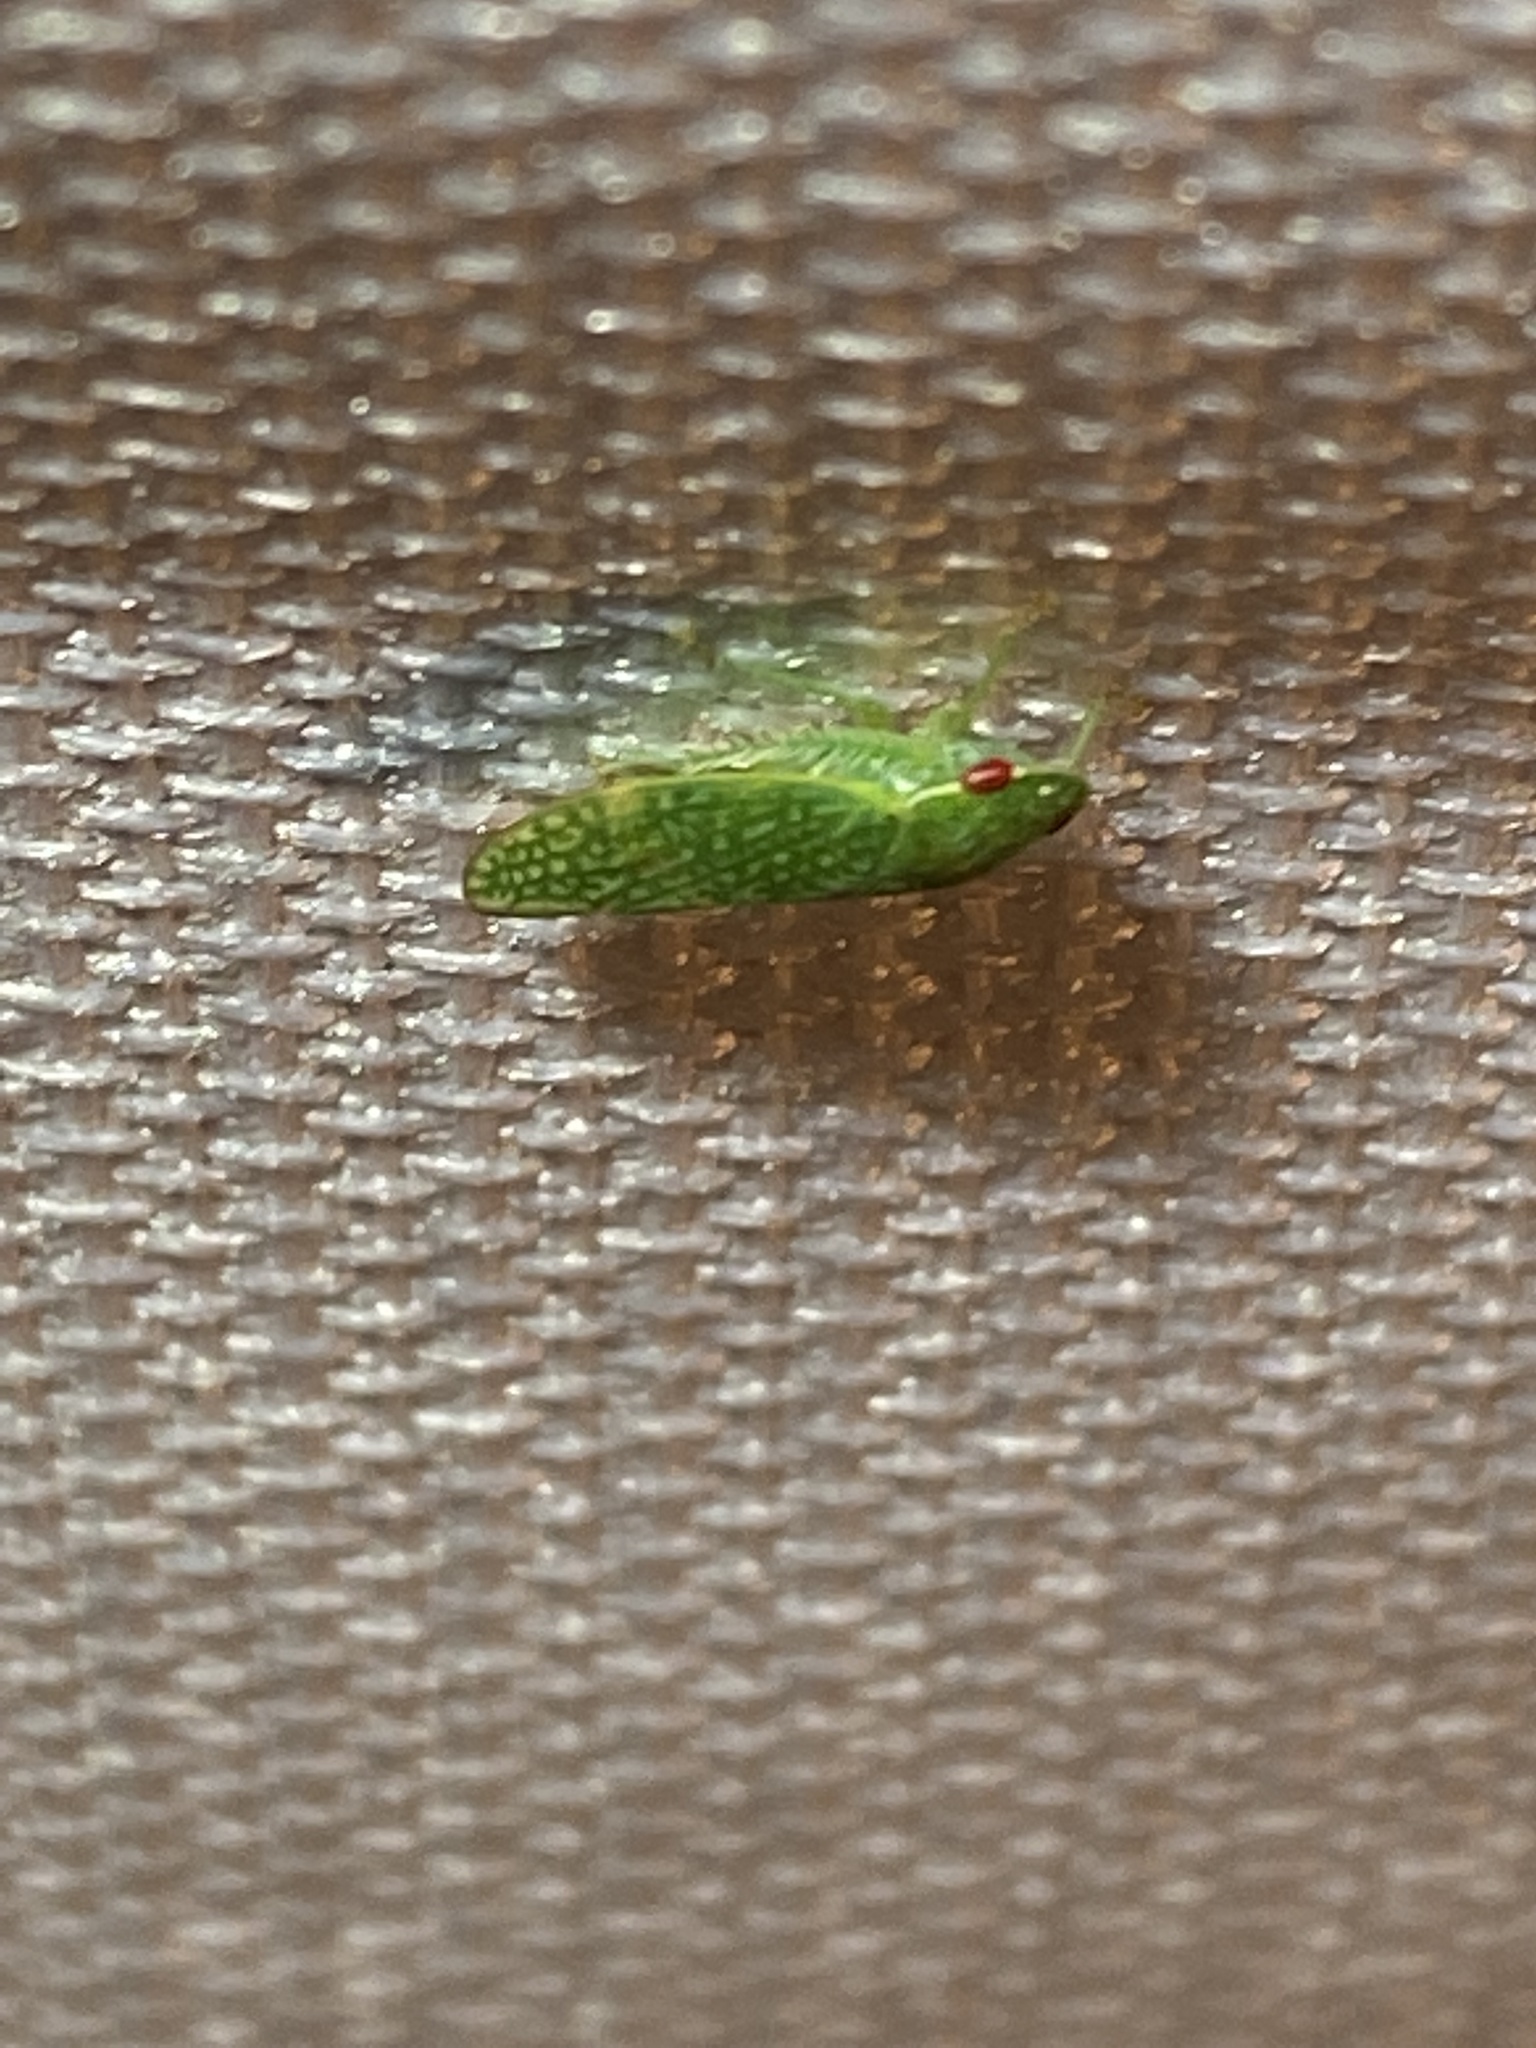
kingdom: Animalia
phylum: Arthropoda
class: Insecta
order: Hemiptera
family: Cicadellidae
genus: Rugosana
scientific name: Rugosana querci
